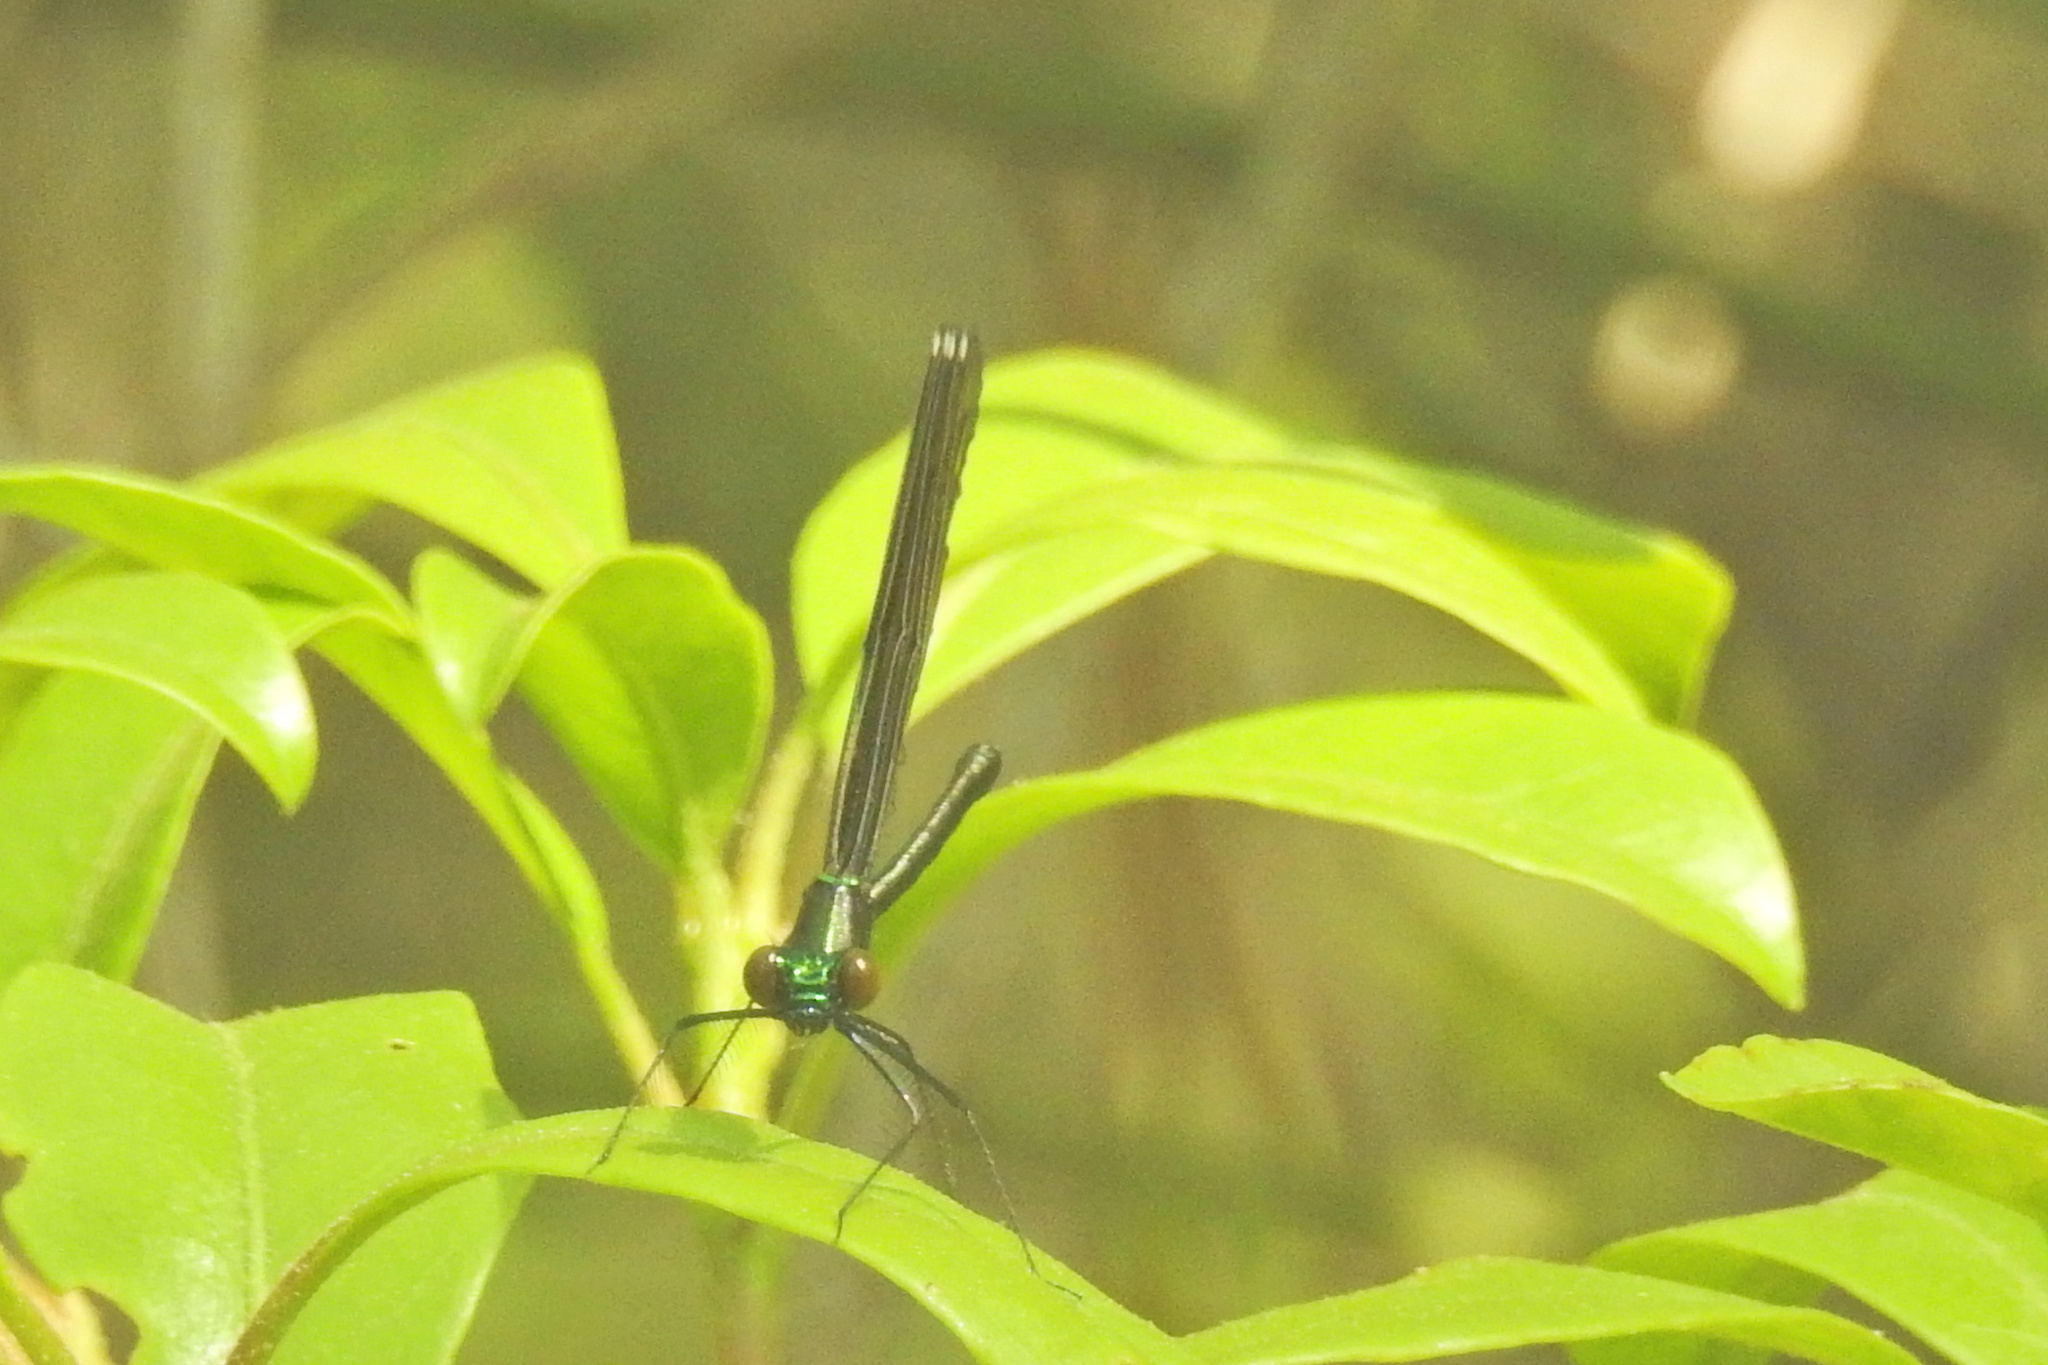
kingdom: Animalia
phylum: Arthropoda
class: Insecta
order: Odonata
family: Calopterygidae
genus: Calopteryx
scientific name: Calopteryx maculata
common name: Ebony jewelwing
